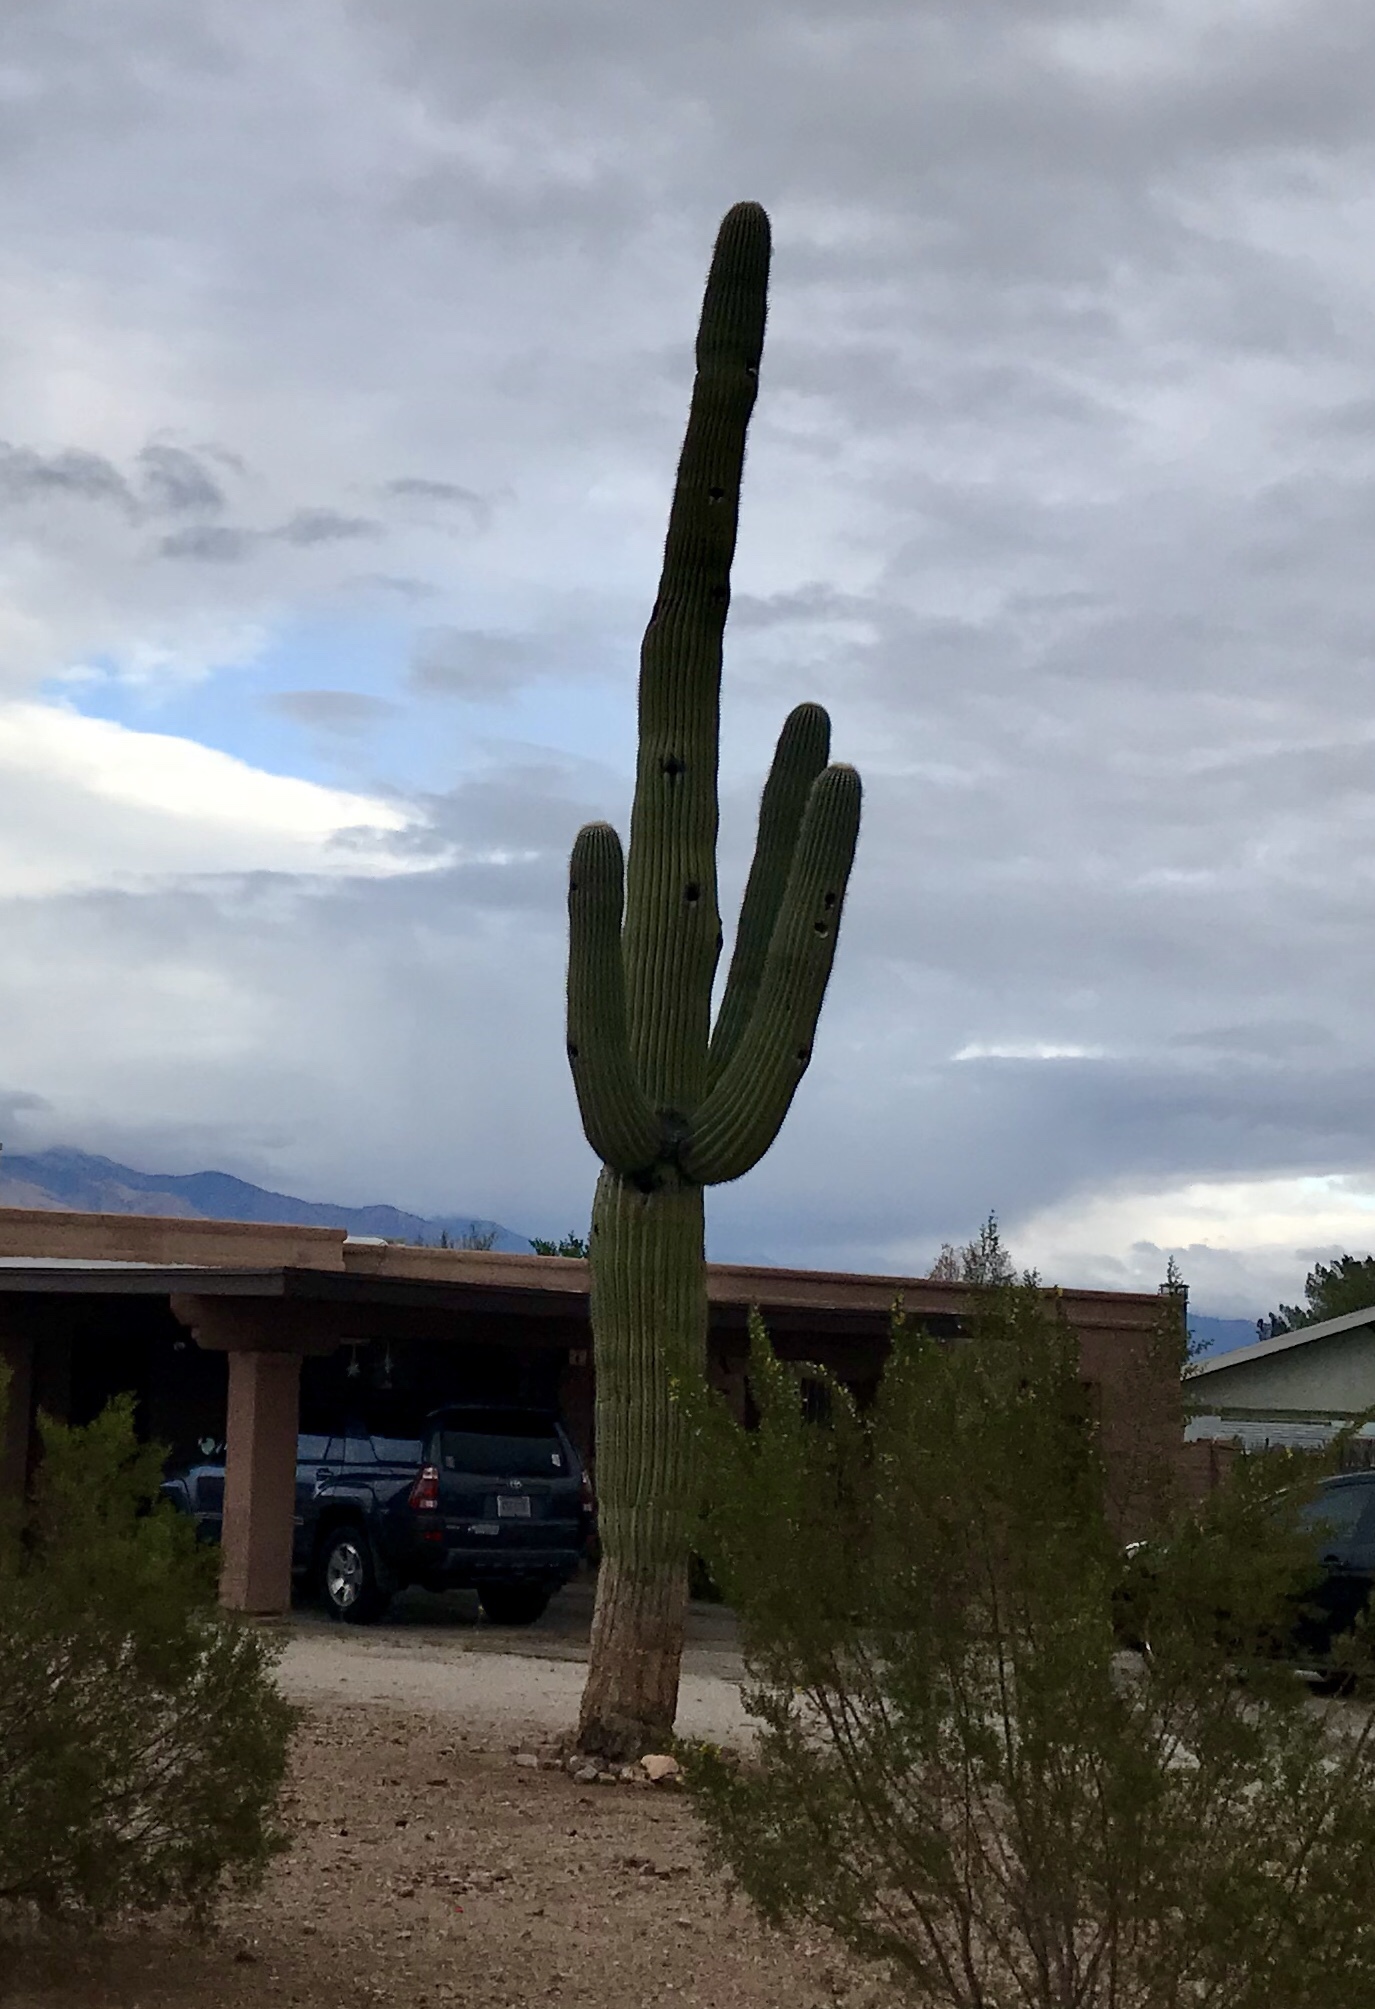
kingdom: Plantae
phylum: Tracheophyta
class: Magnoliopsida
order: Caryophyllales
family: Cactaceae
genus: Carnegiea
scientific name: Carnegiea gigantea
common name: Saguaro
